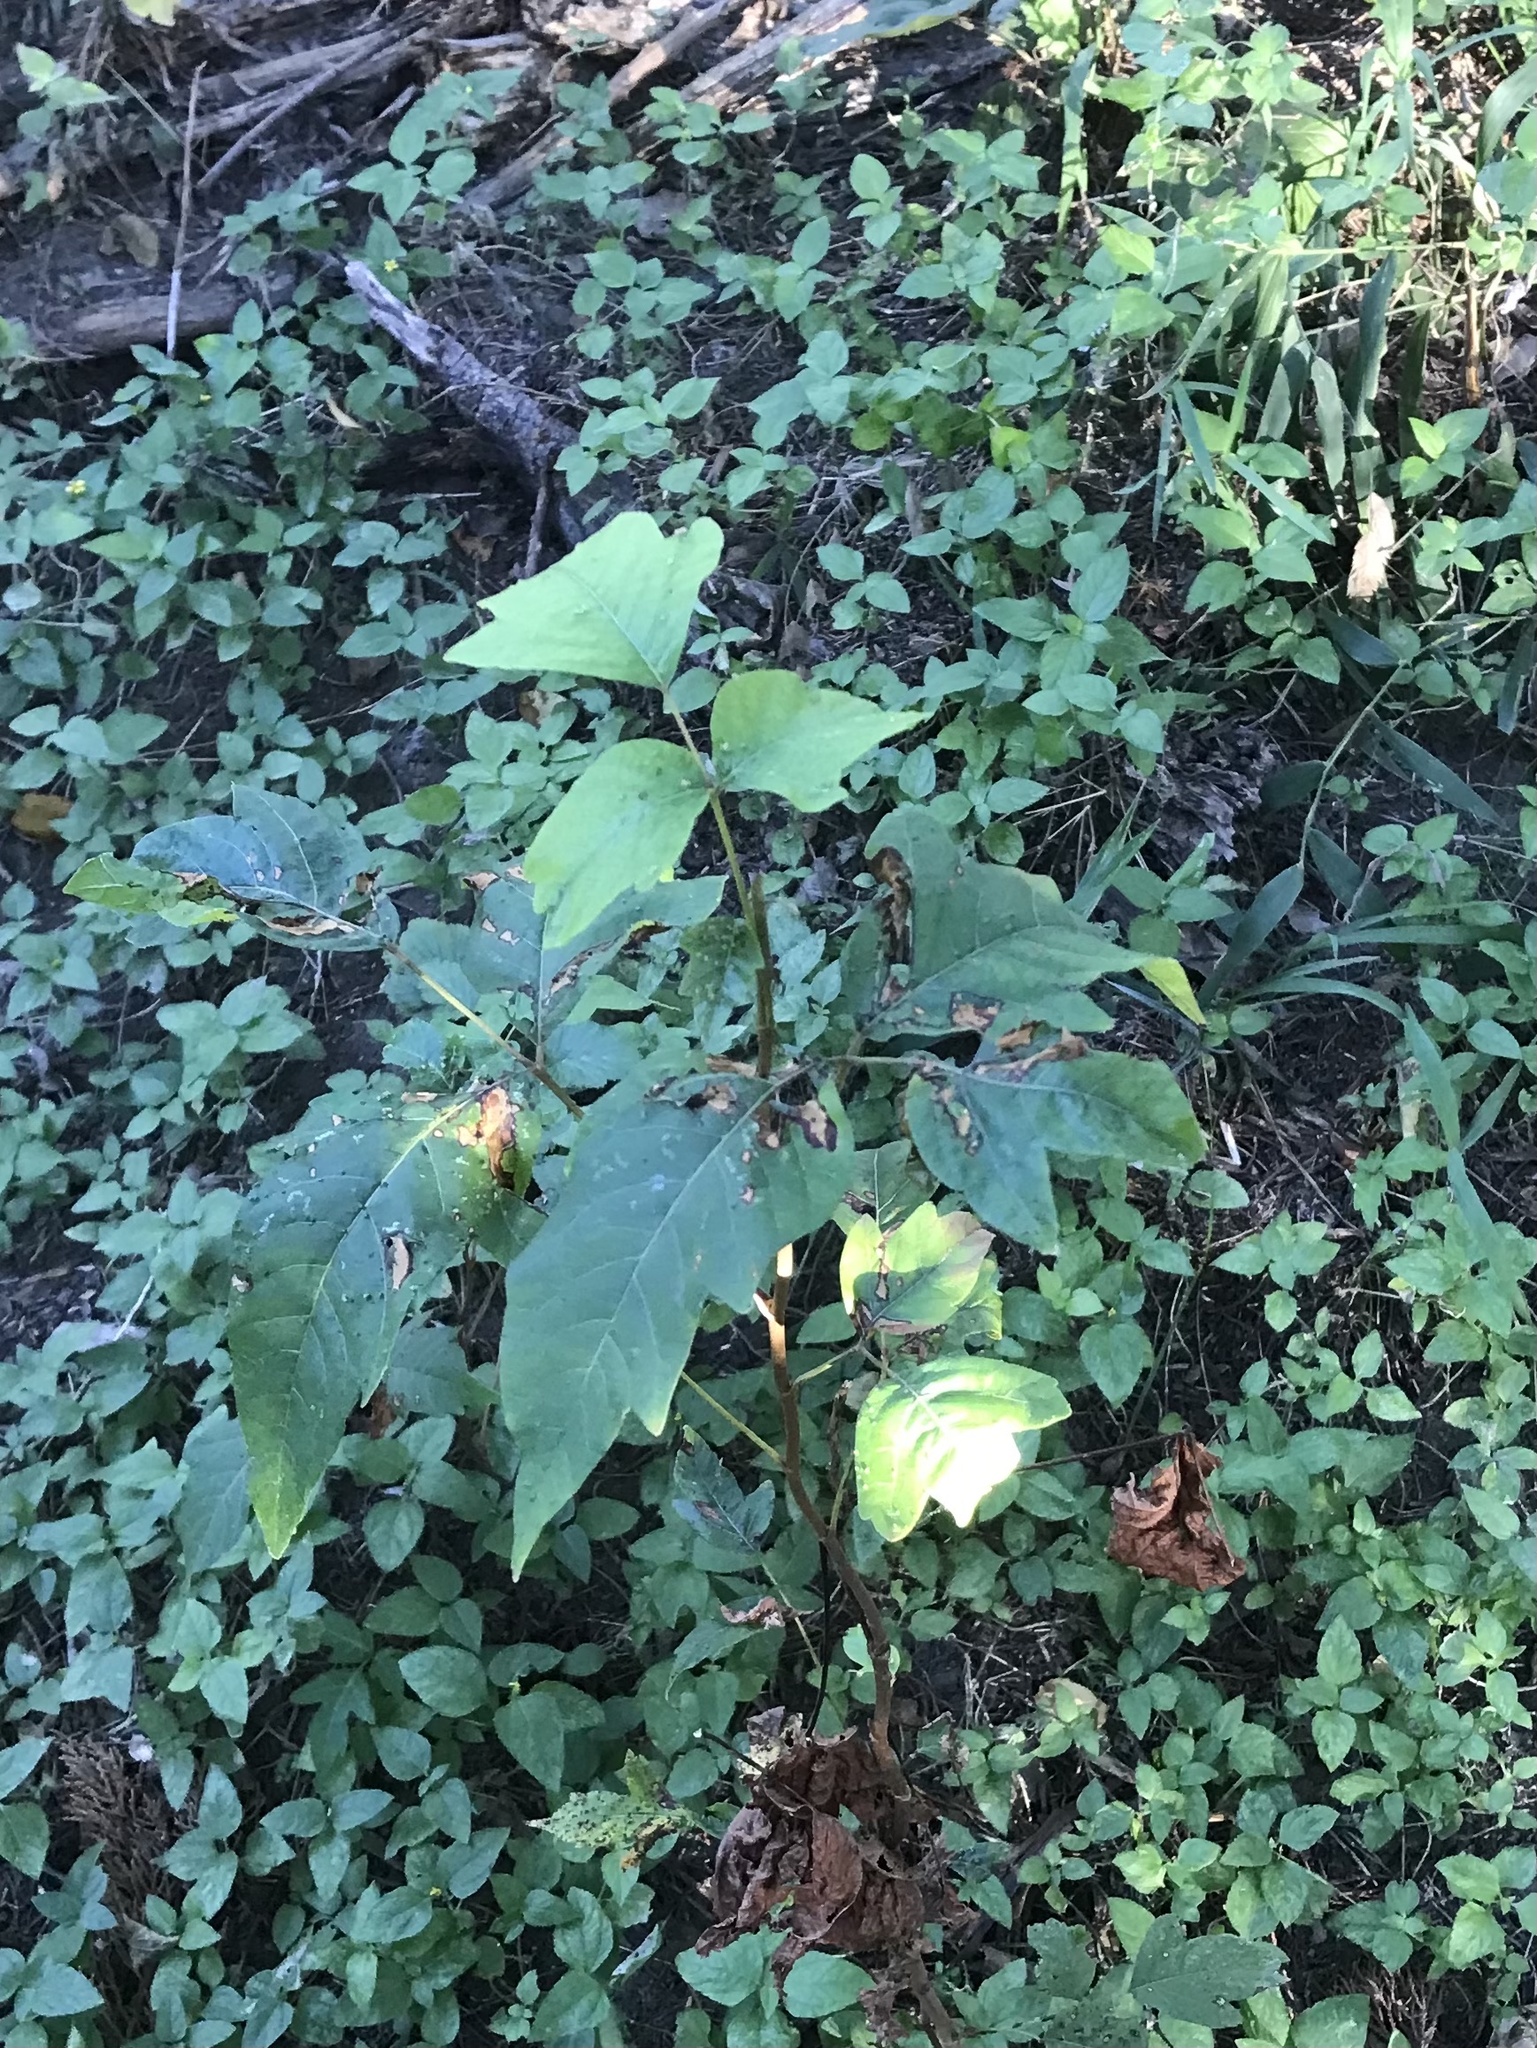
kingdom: Plantae
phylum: Tracheophyta
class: Magnoliopsida
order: Sapindales
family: Anacardiaceae
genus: Toxicodendron
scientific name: Toxicodendron radicans
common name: Poison ivy
